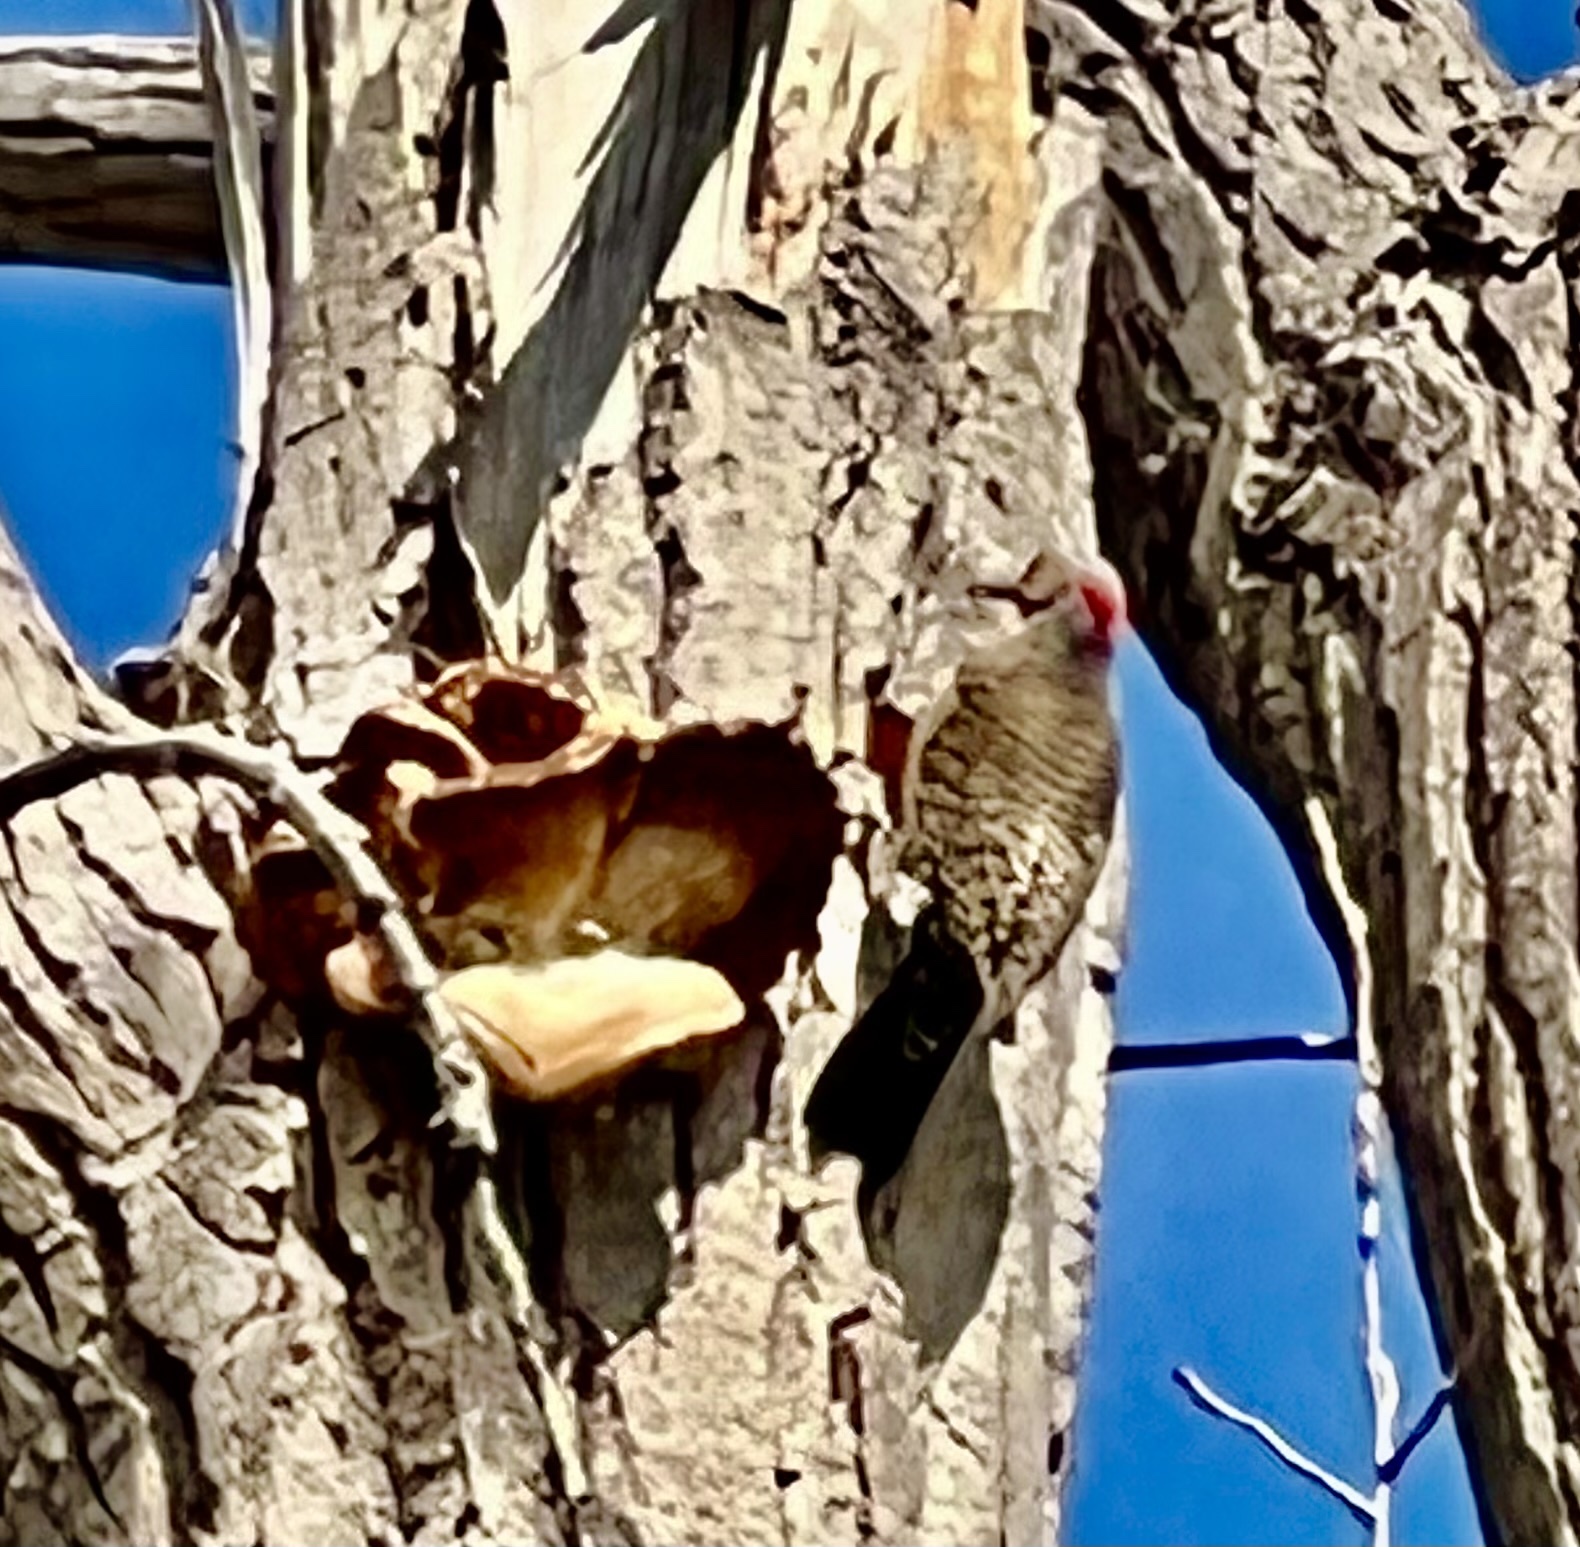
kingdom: Animalia
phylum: Chordata
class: Aves
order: Piciformes
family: Picidae
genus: Colaptes
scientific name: Colaptes auratus
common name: Northern flicker
